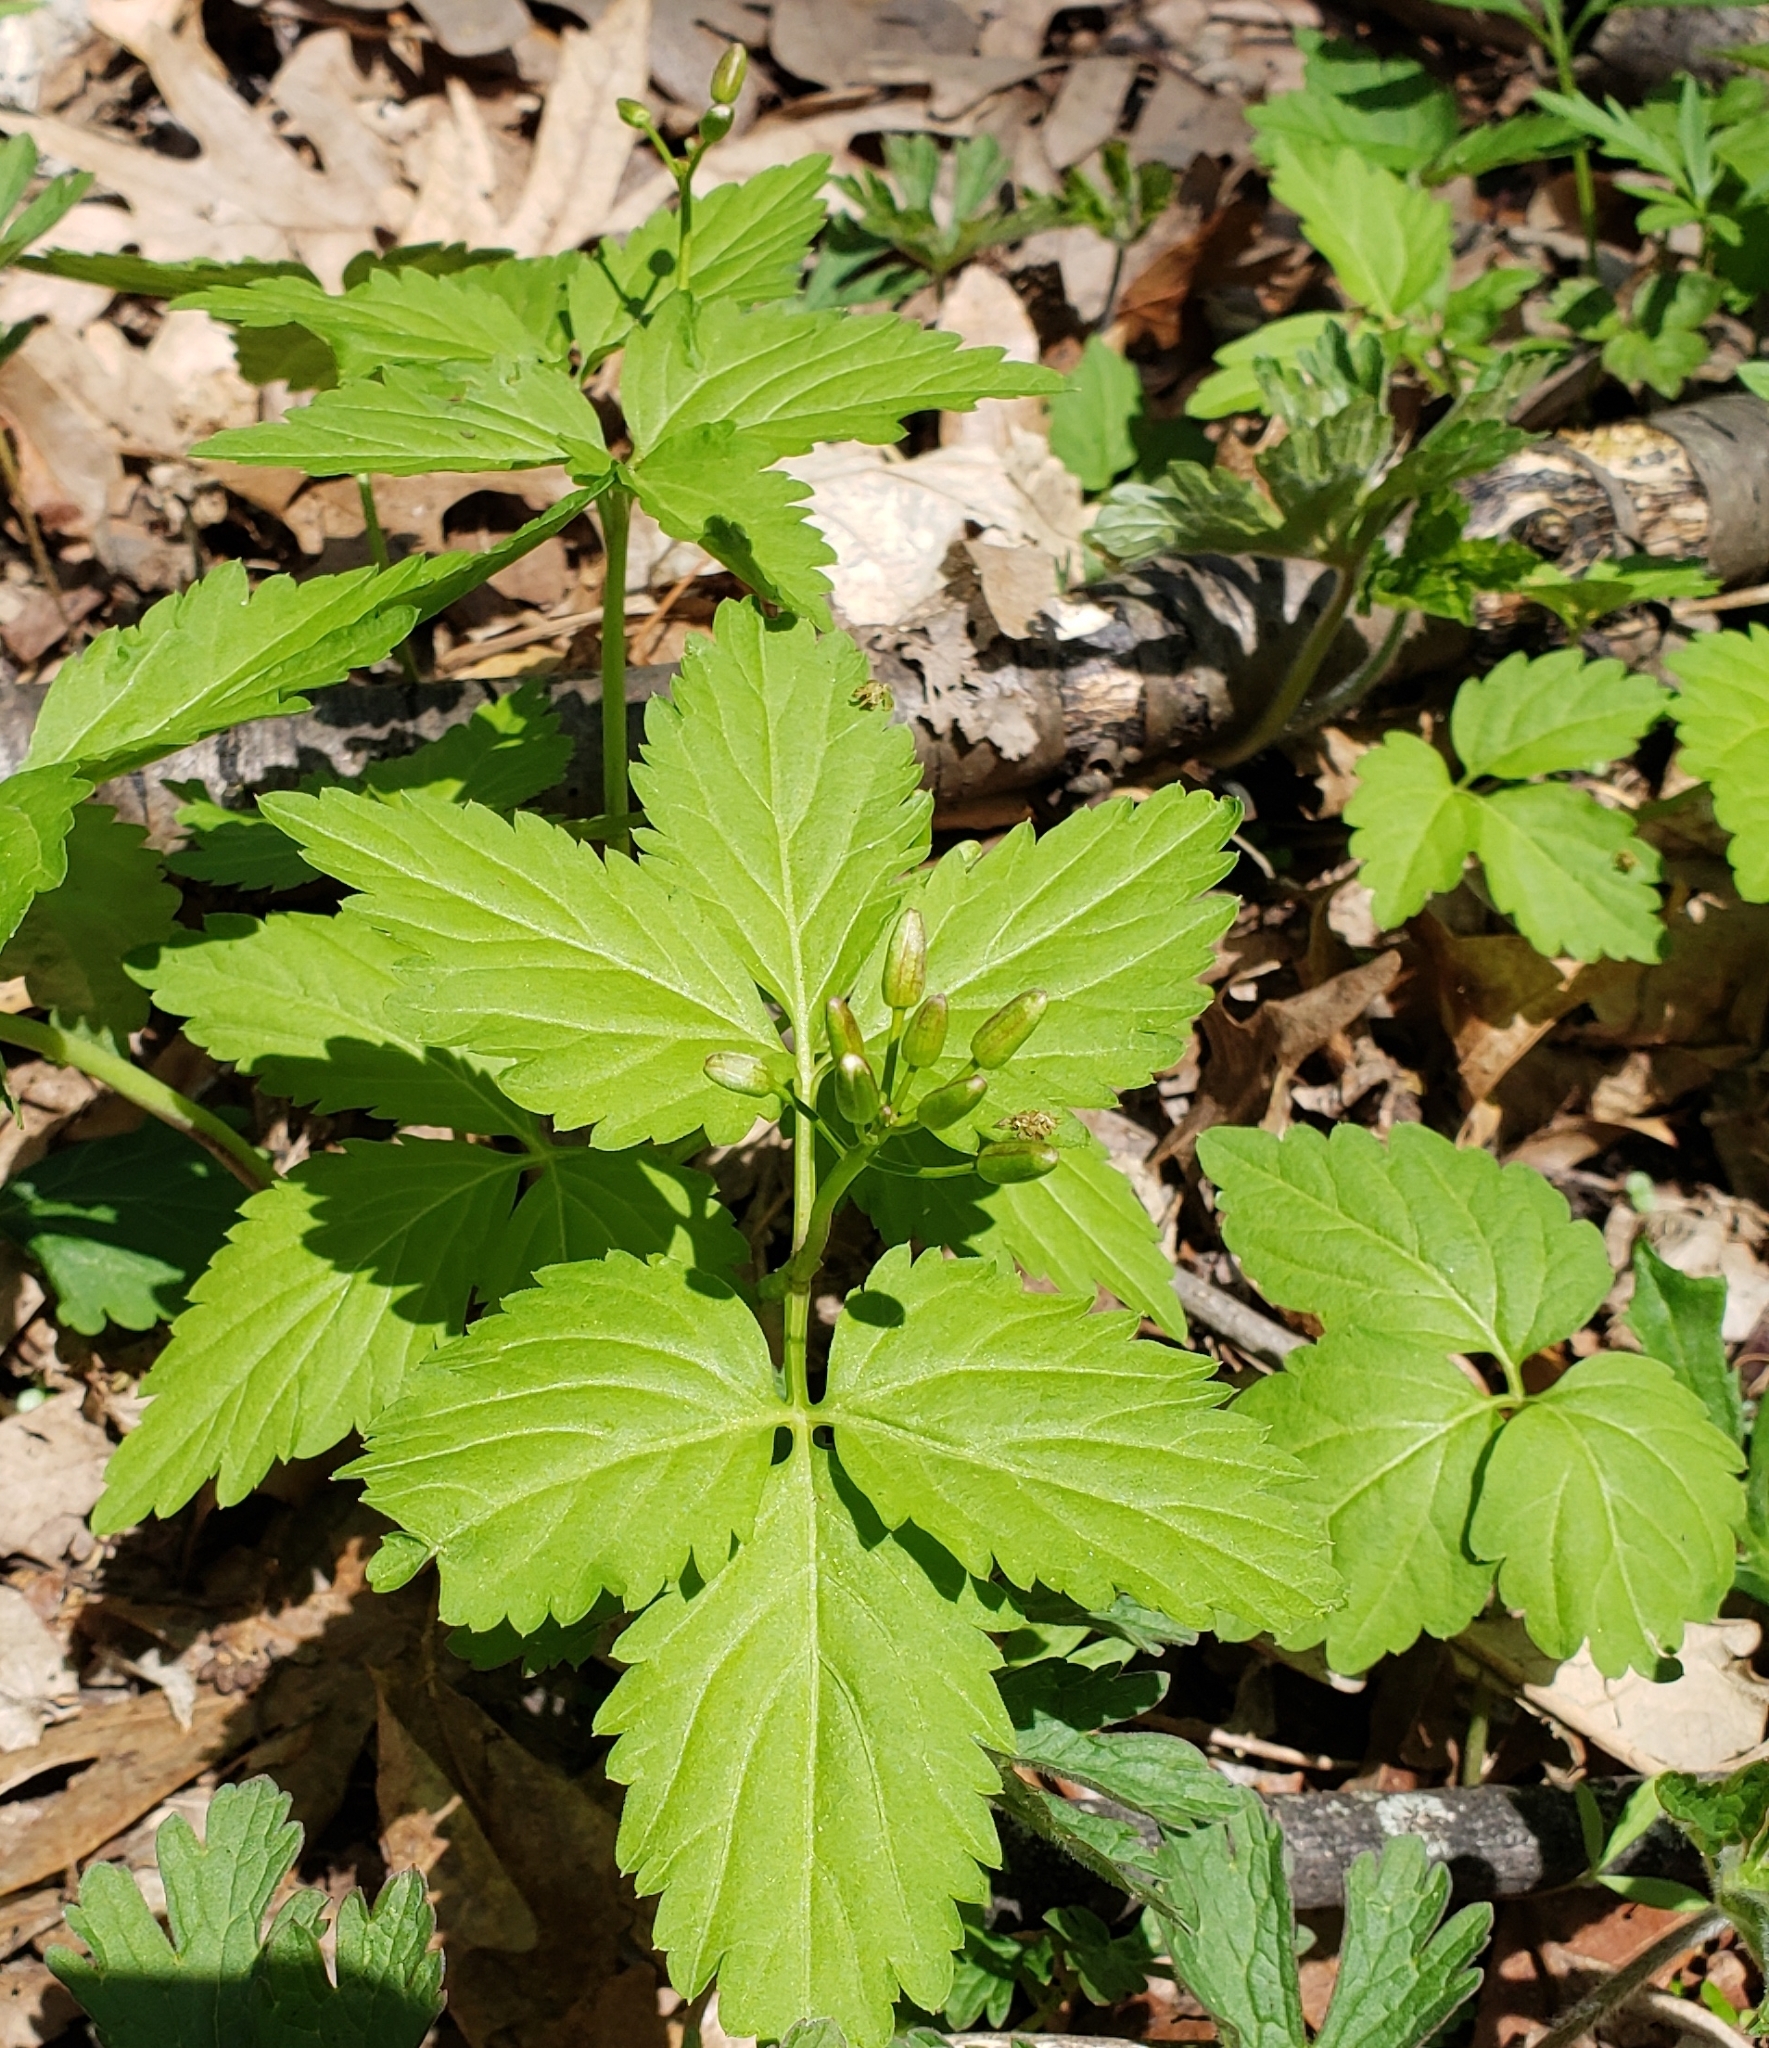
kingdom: Plantae
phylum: Tracheophyta
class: Magnoliopsida
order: Brassicales
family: Brassicaceae
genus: Cardamine
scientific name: Cardamine diphylla
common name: Broad-leaved toothwort
